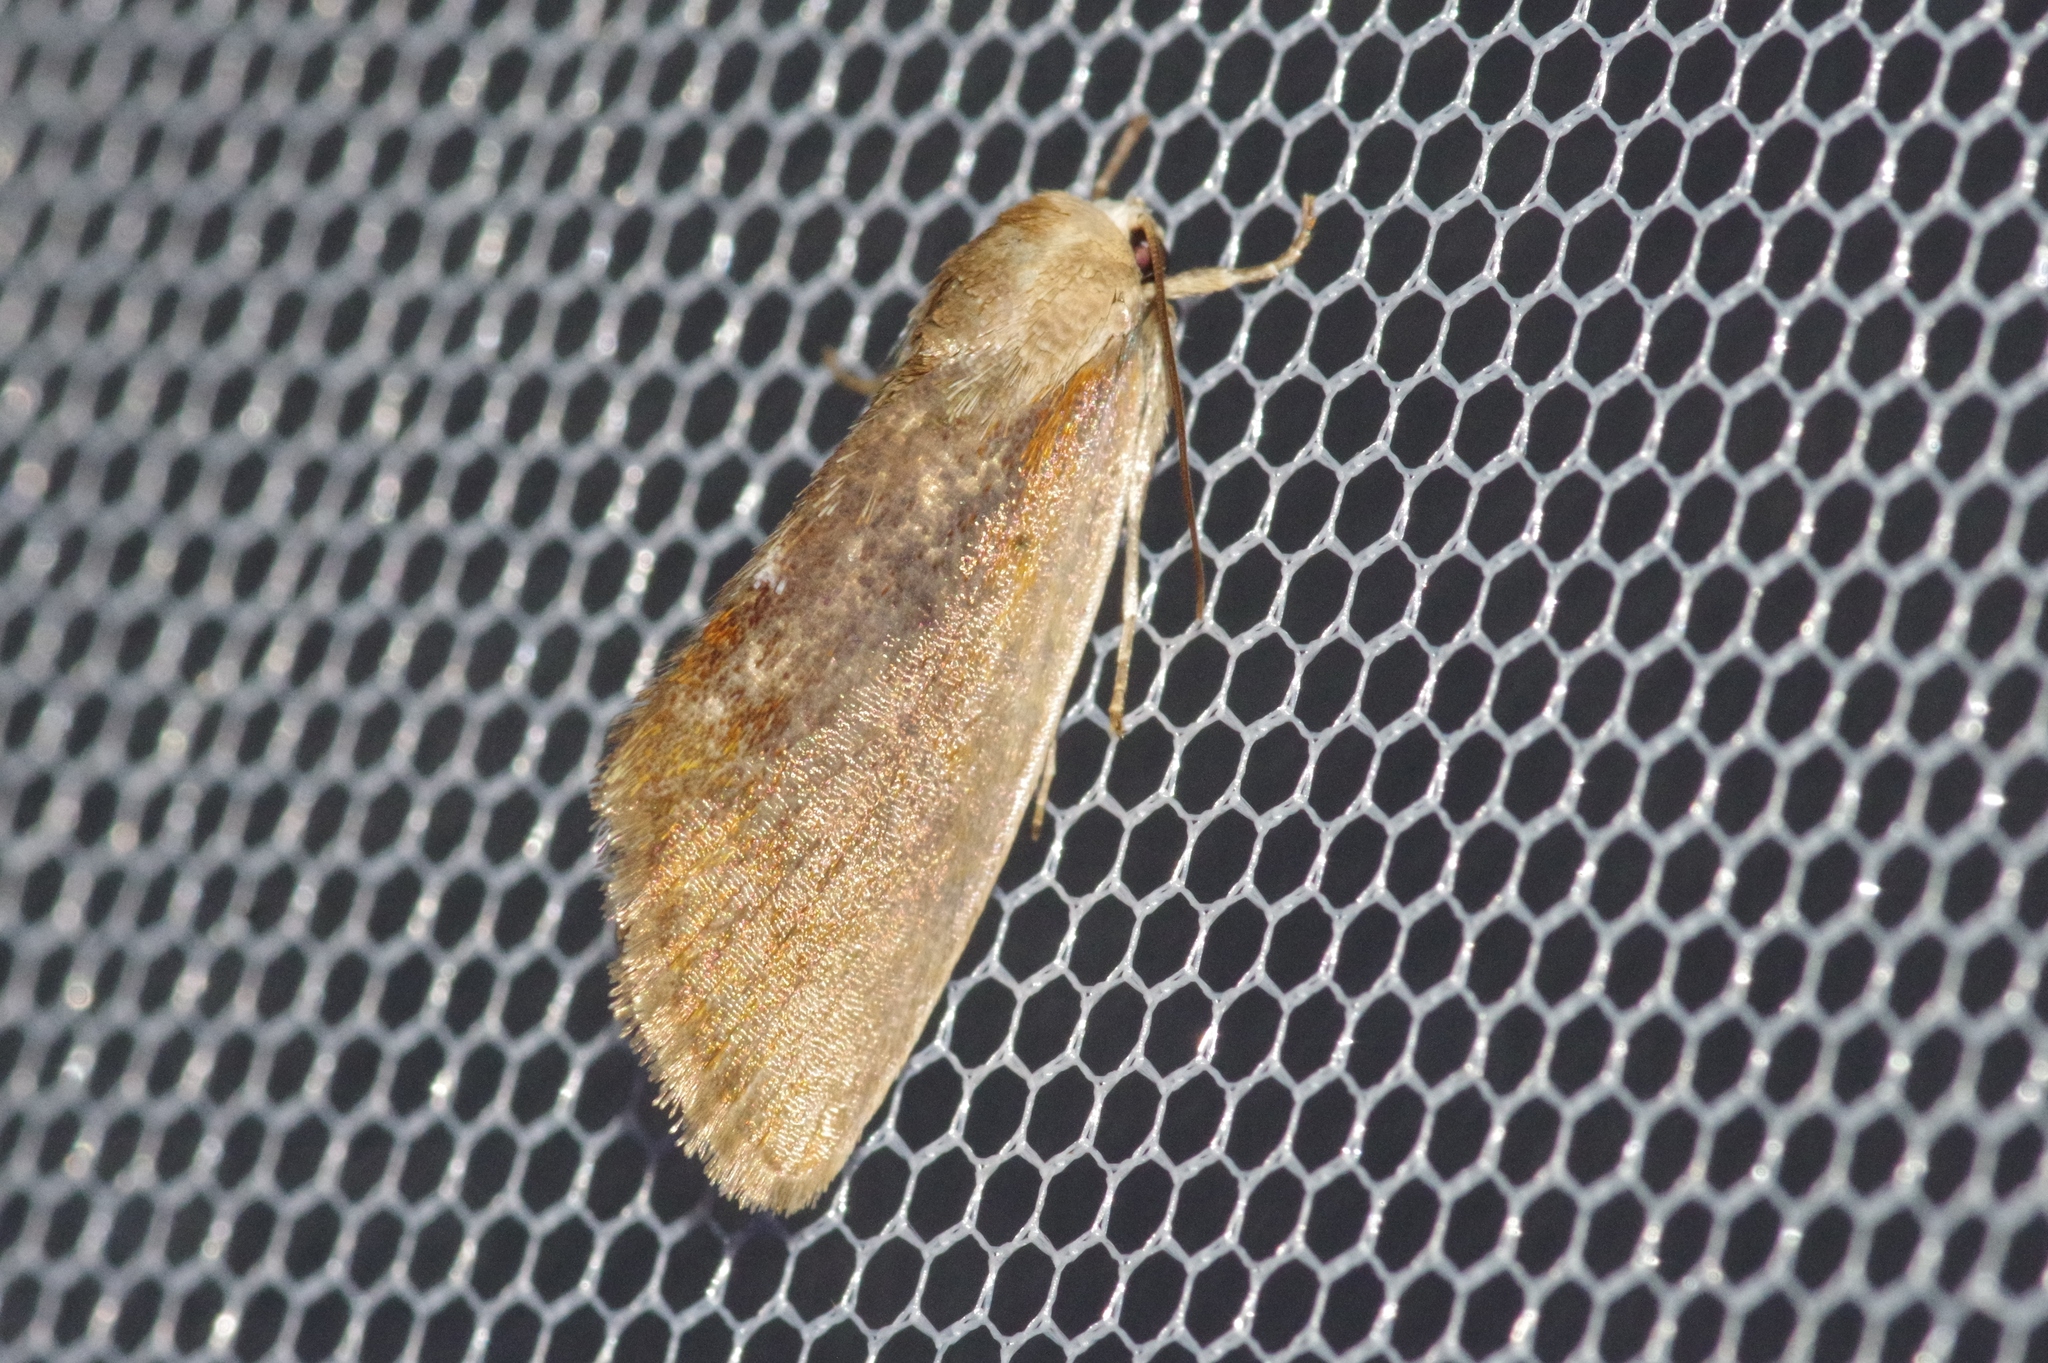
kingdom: Animalia
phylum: Arthropoda
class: Insecta
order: Lepidoptera
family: Nolidae
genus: Iragaodes
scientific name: Iragaodes nobilis
